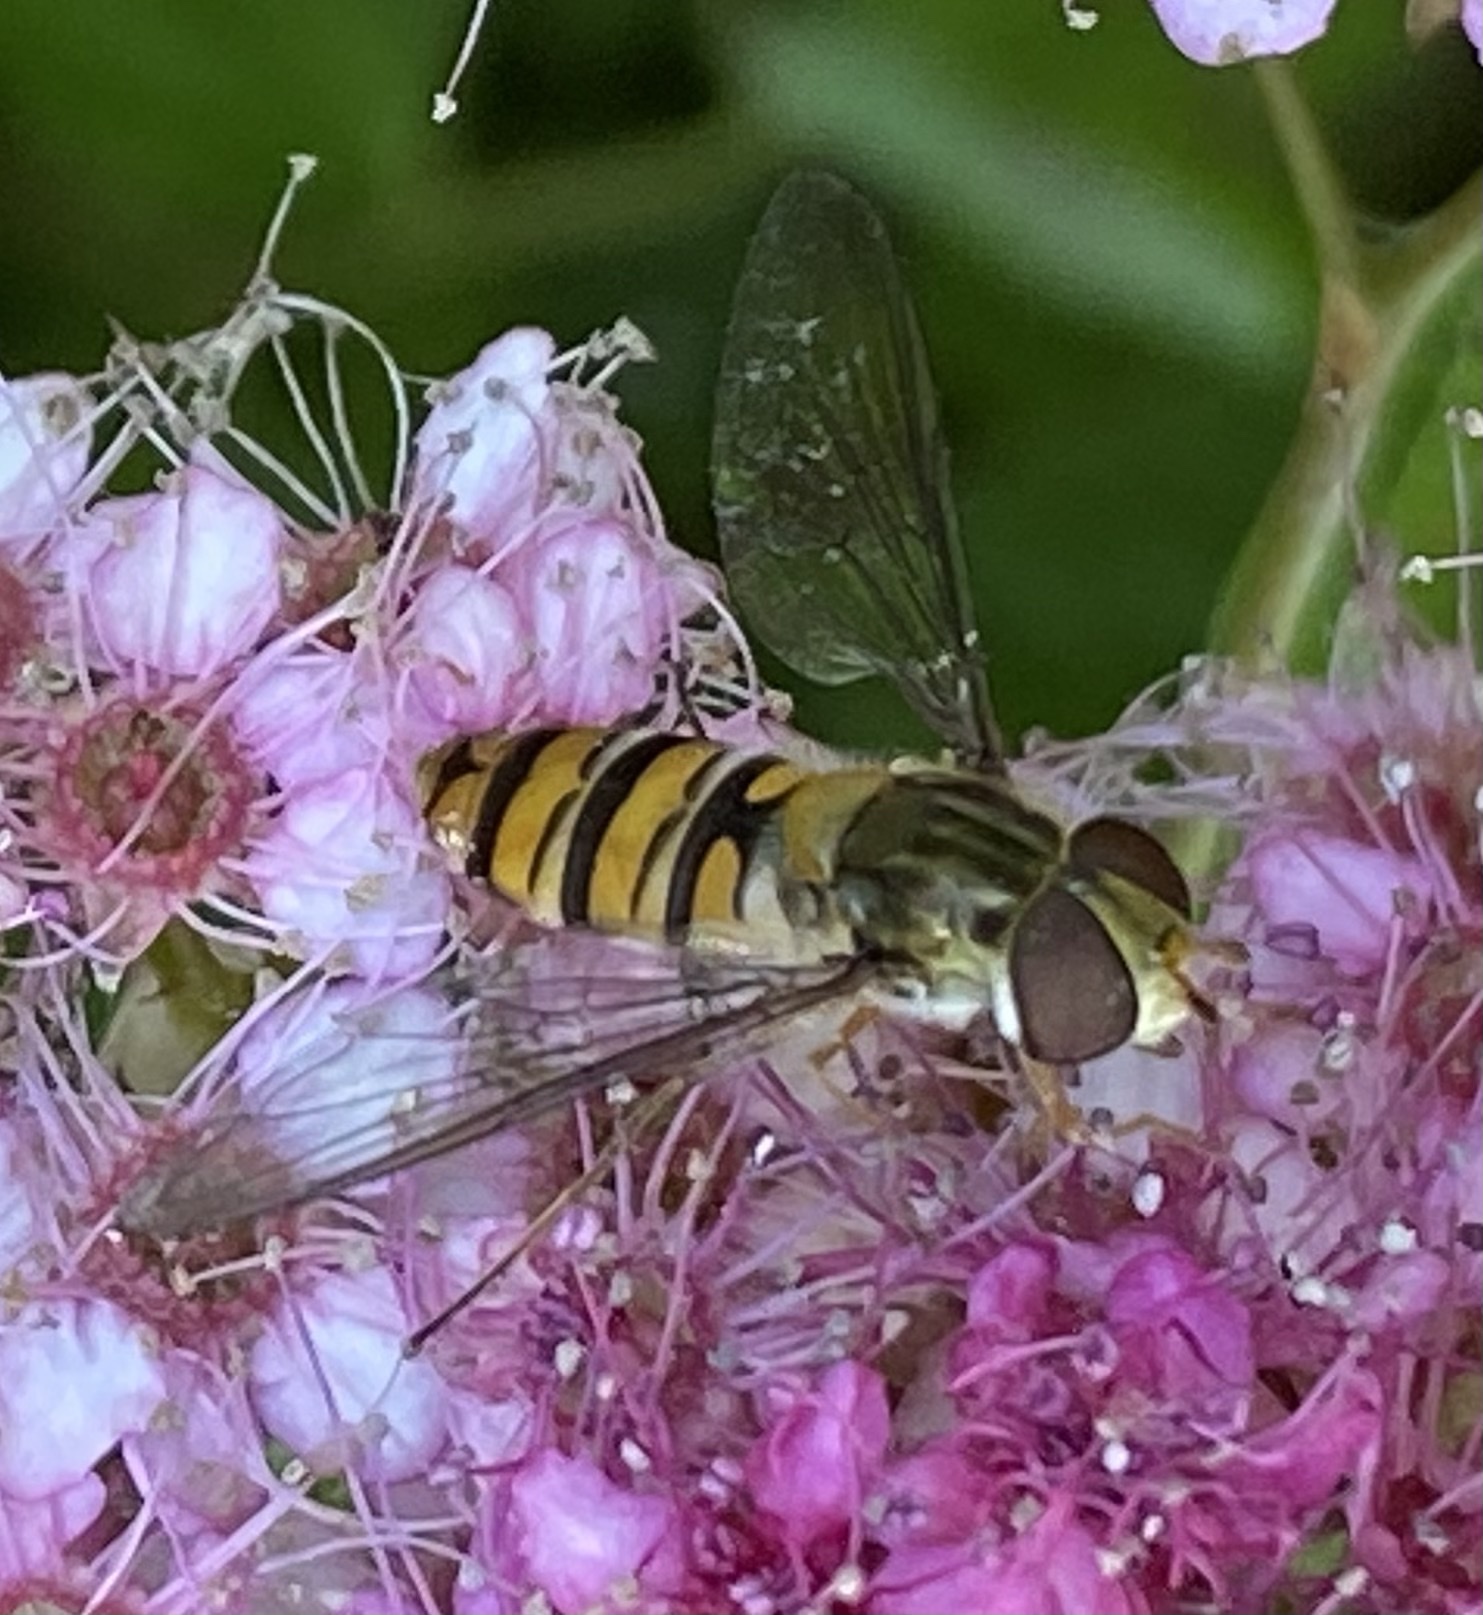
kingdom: Animalia
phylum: Arthropoda
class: Insecta
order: Diptera
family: Syrphidae
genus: Episyrphus
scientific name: Episyrphus balteatus
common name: Marmalade hoverfly
